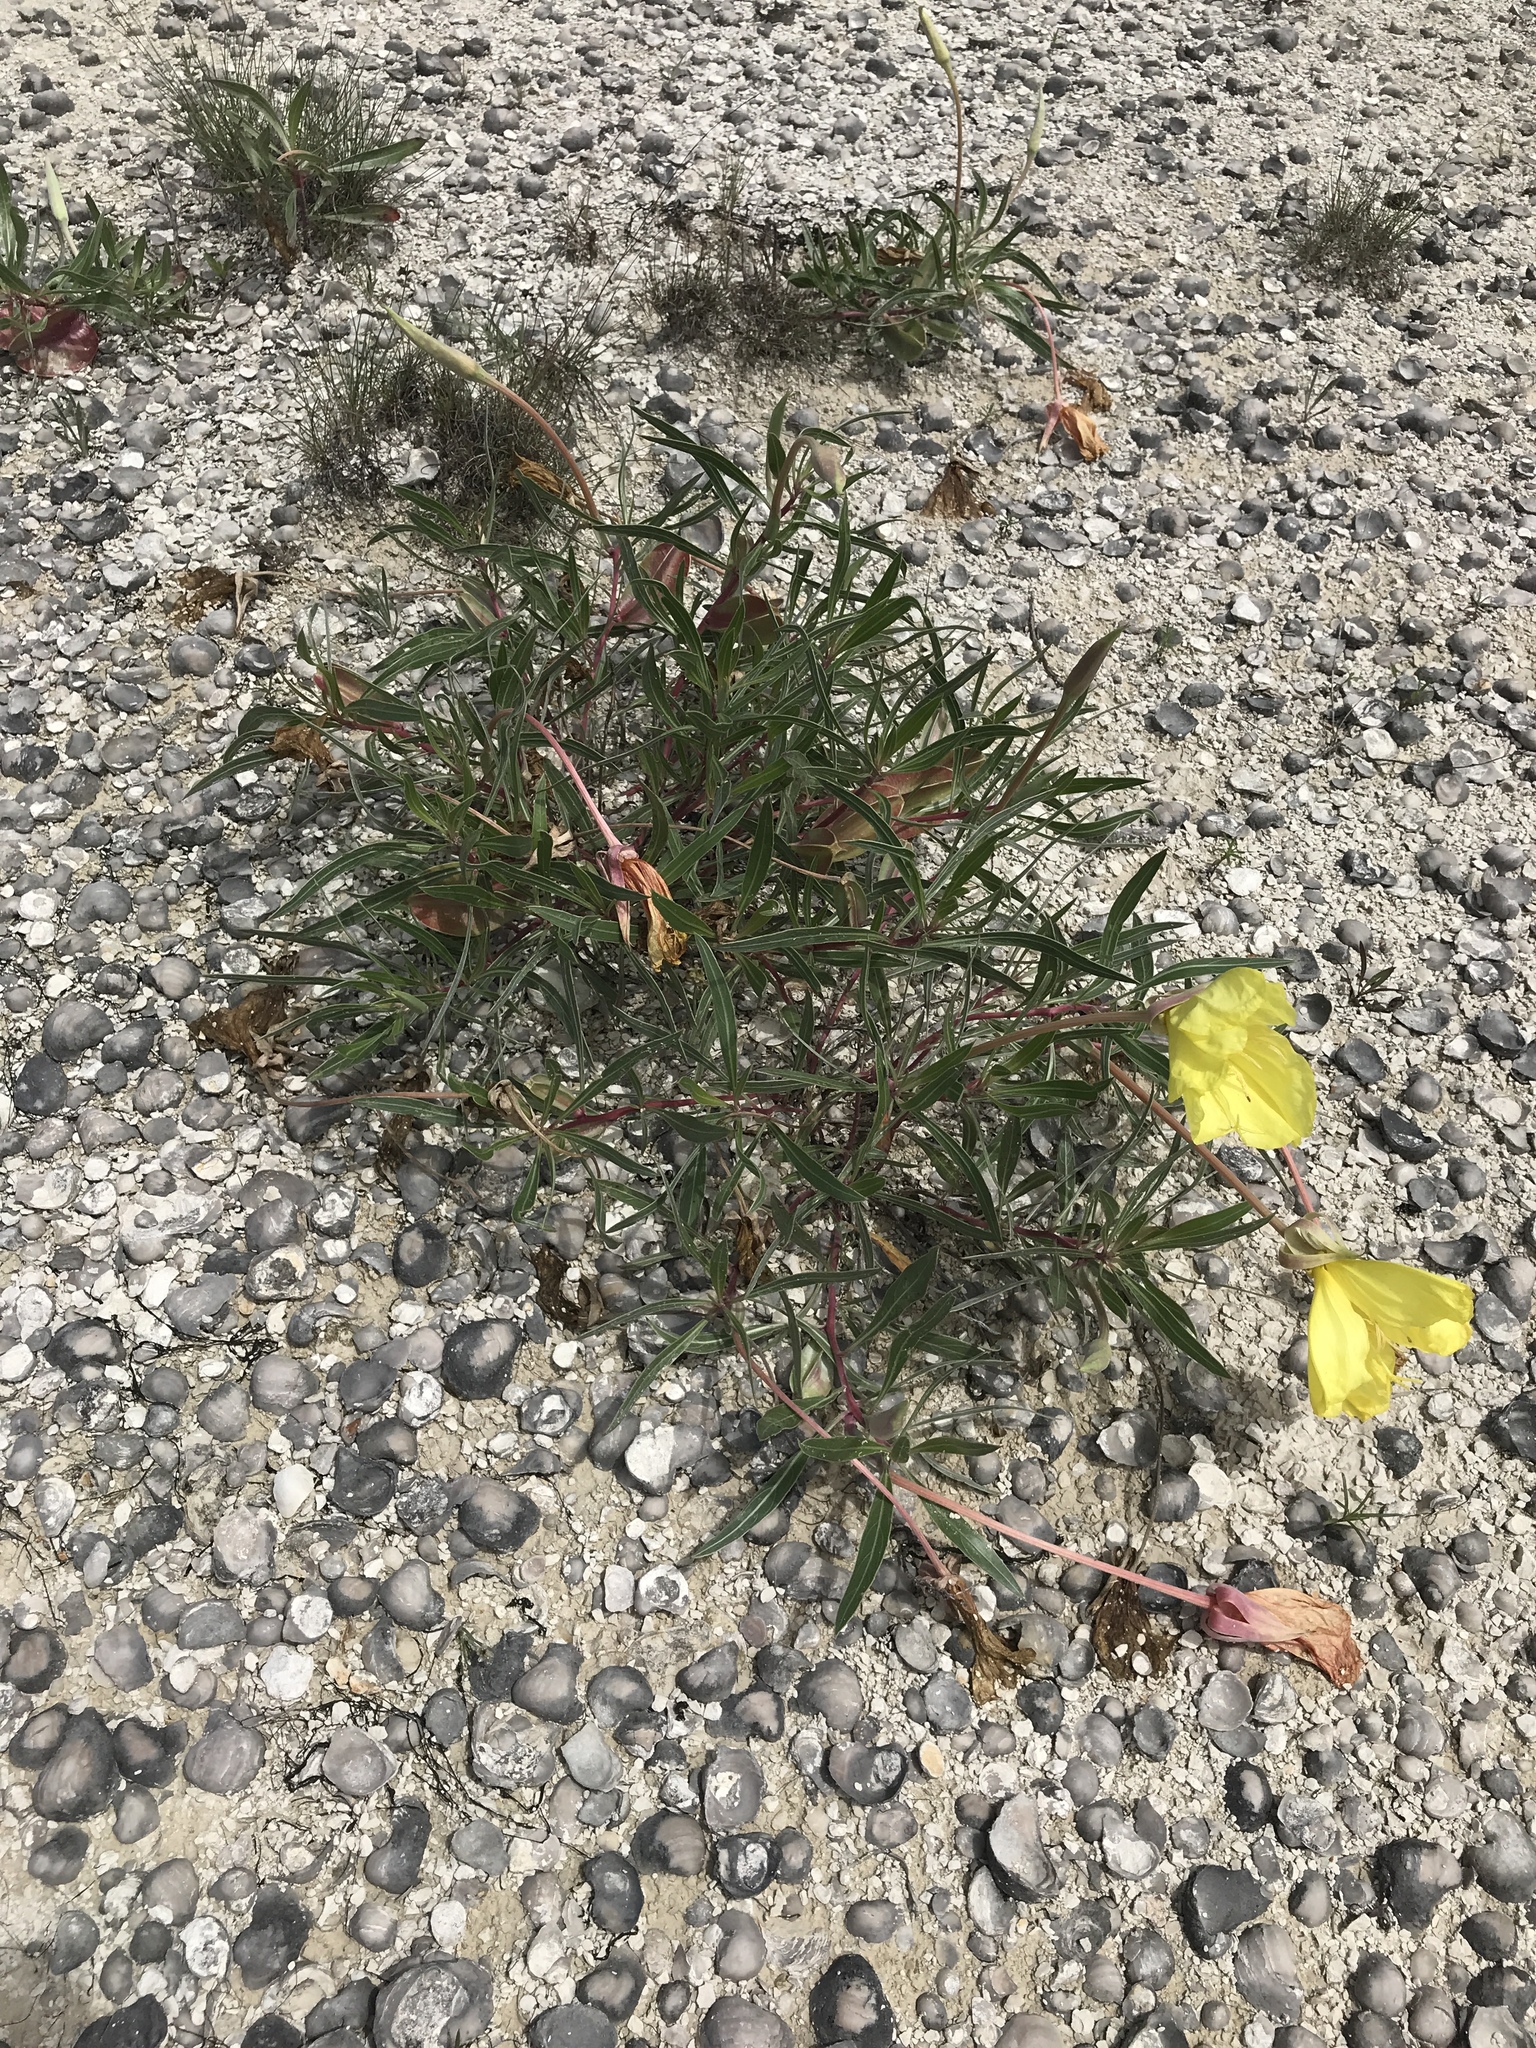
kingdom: Plantae
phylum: Tracheophyta
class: Magnoliopsida
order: Myrtales
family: Onagraceae
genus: Oenothera
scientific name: Oenothera macrocarpa
